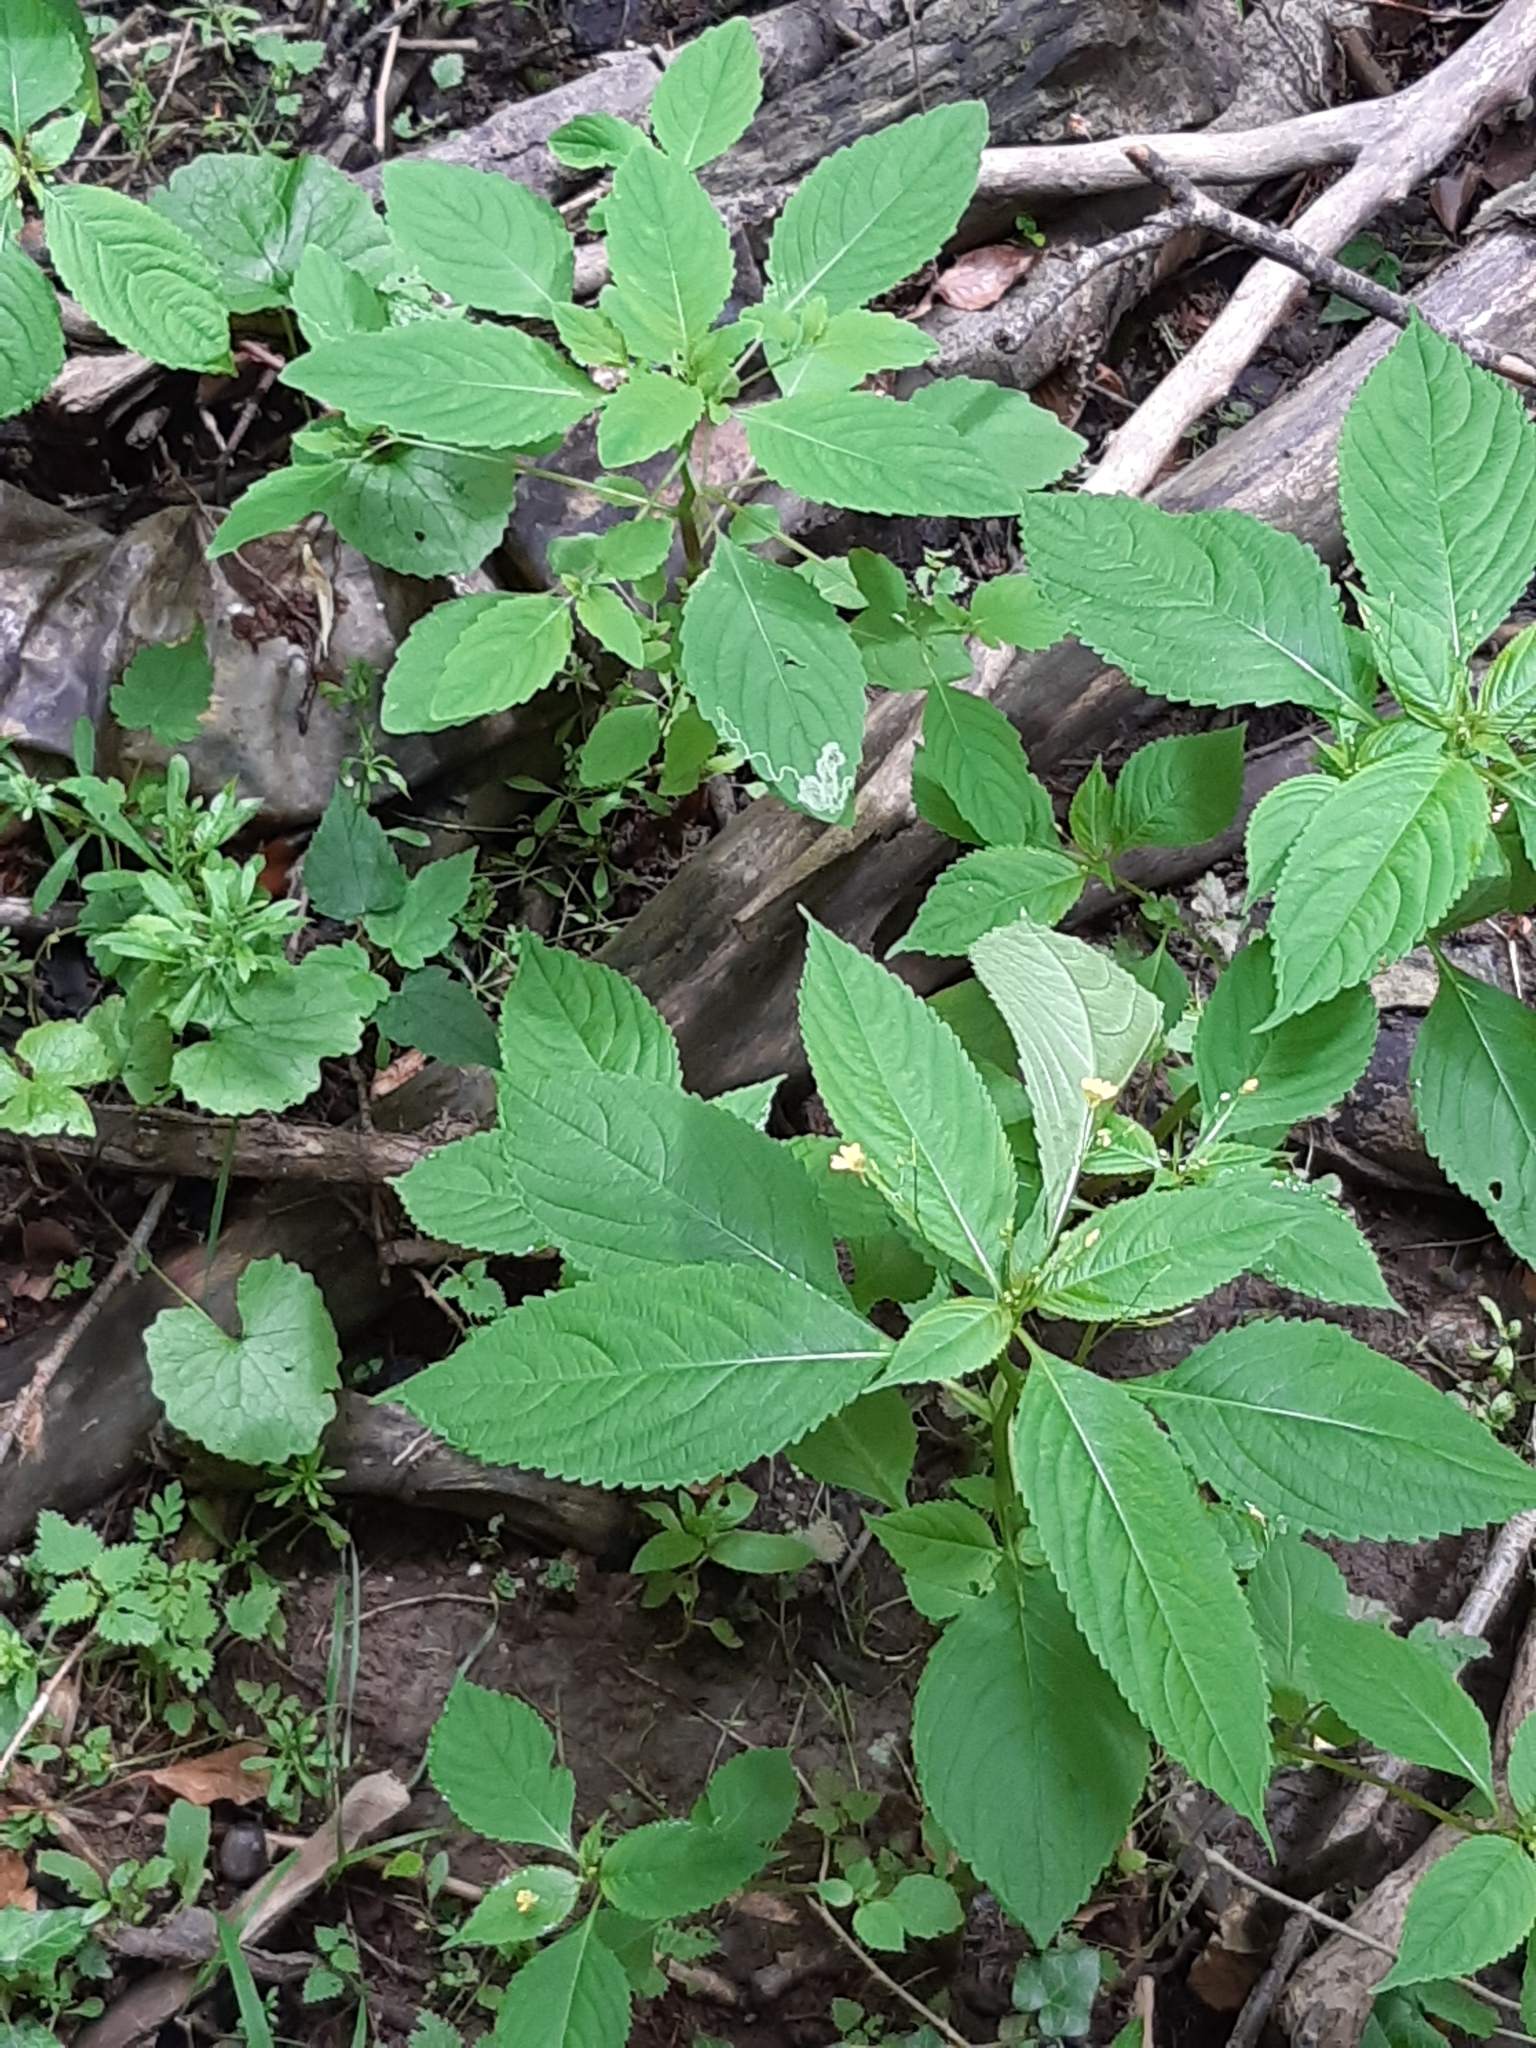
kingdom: Plantae
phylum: Tracheophyta
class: Magnoliopsida
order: Ericales
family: Balsaminaceae
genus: Impatiens
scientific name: Impatiens parviflora
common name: Small balsam
